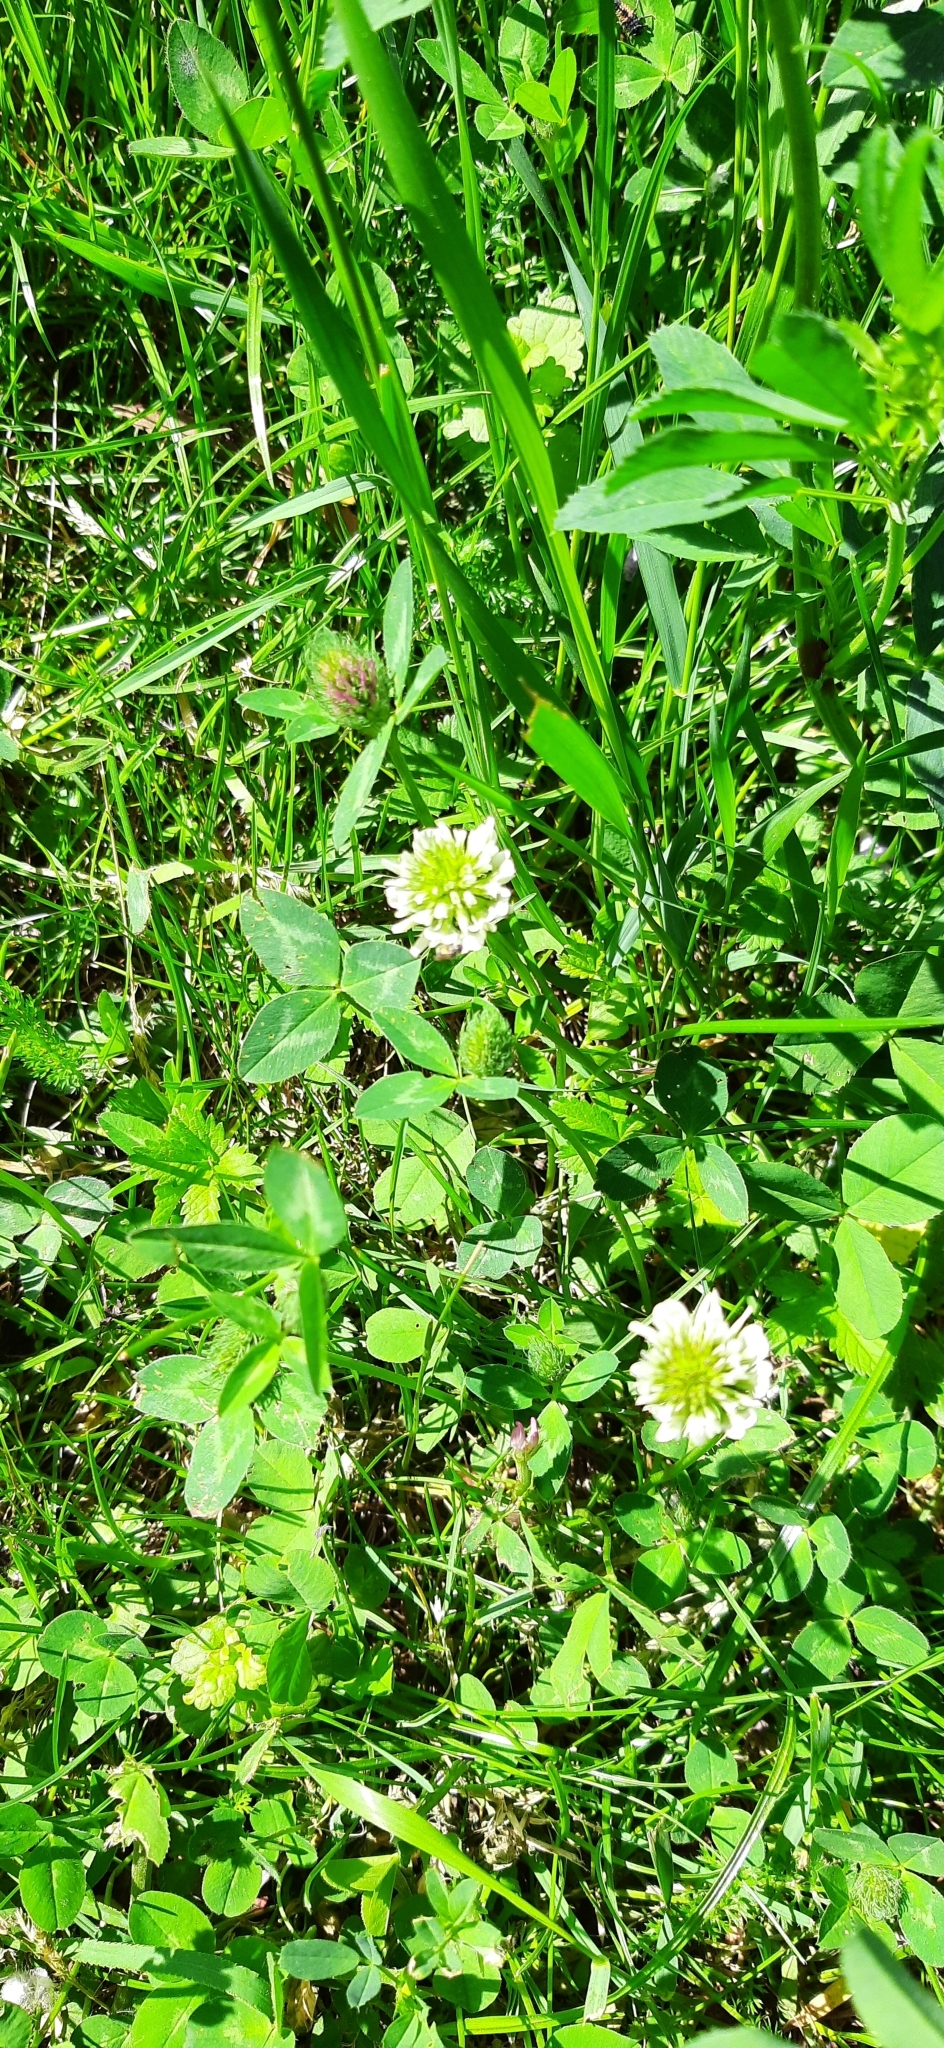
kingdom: Plantae
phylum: Tracheophyta
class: Magnoliopsida
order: Fabales
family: Fabaceae
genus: Trifolium
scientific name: Trifolium repens
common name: White clover
